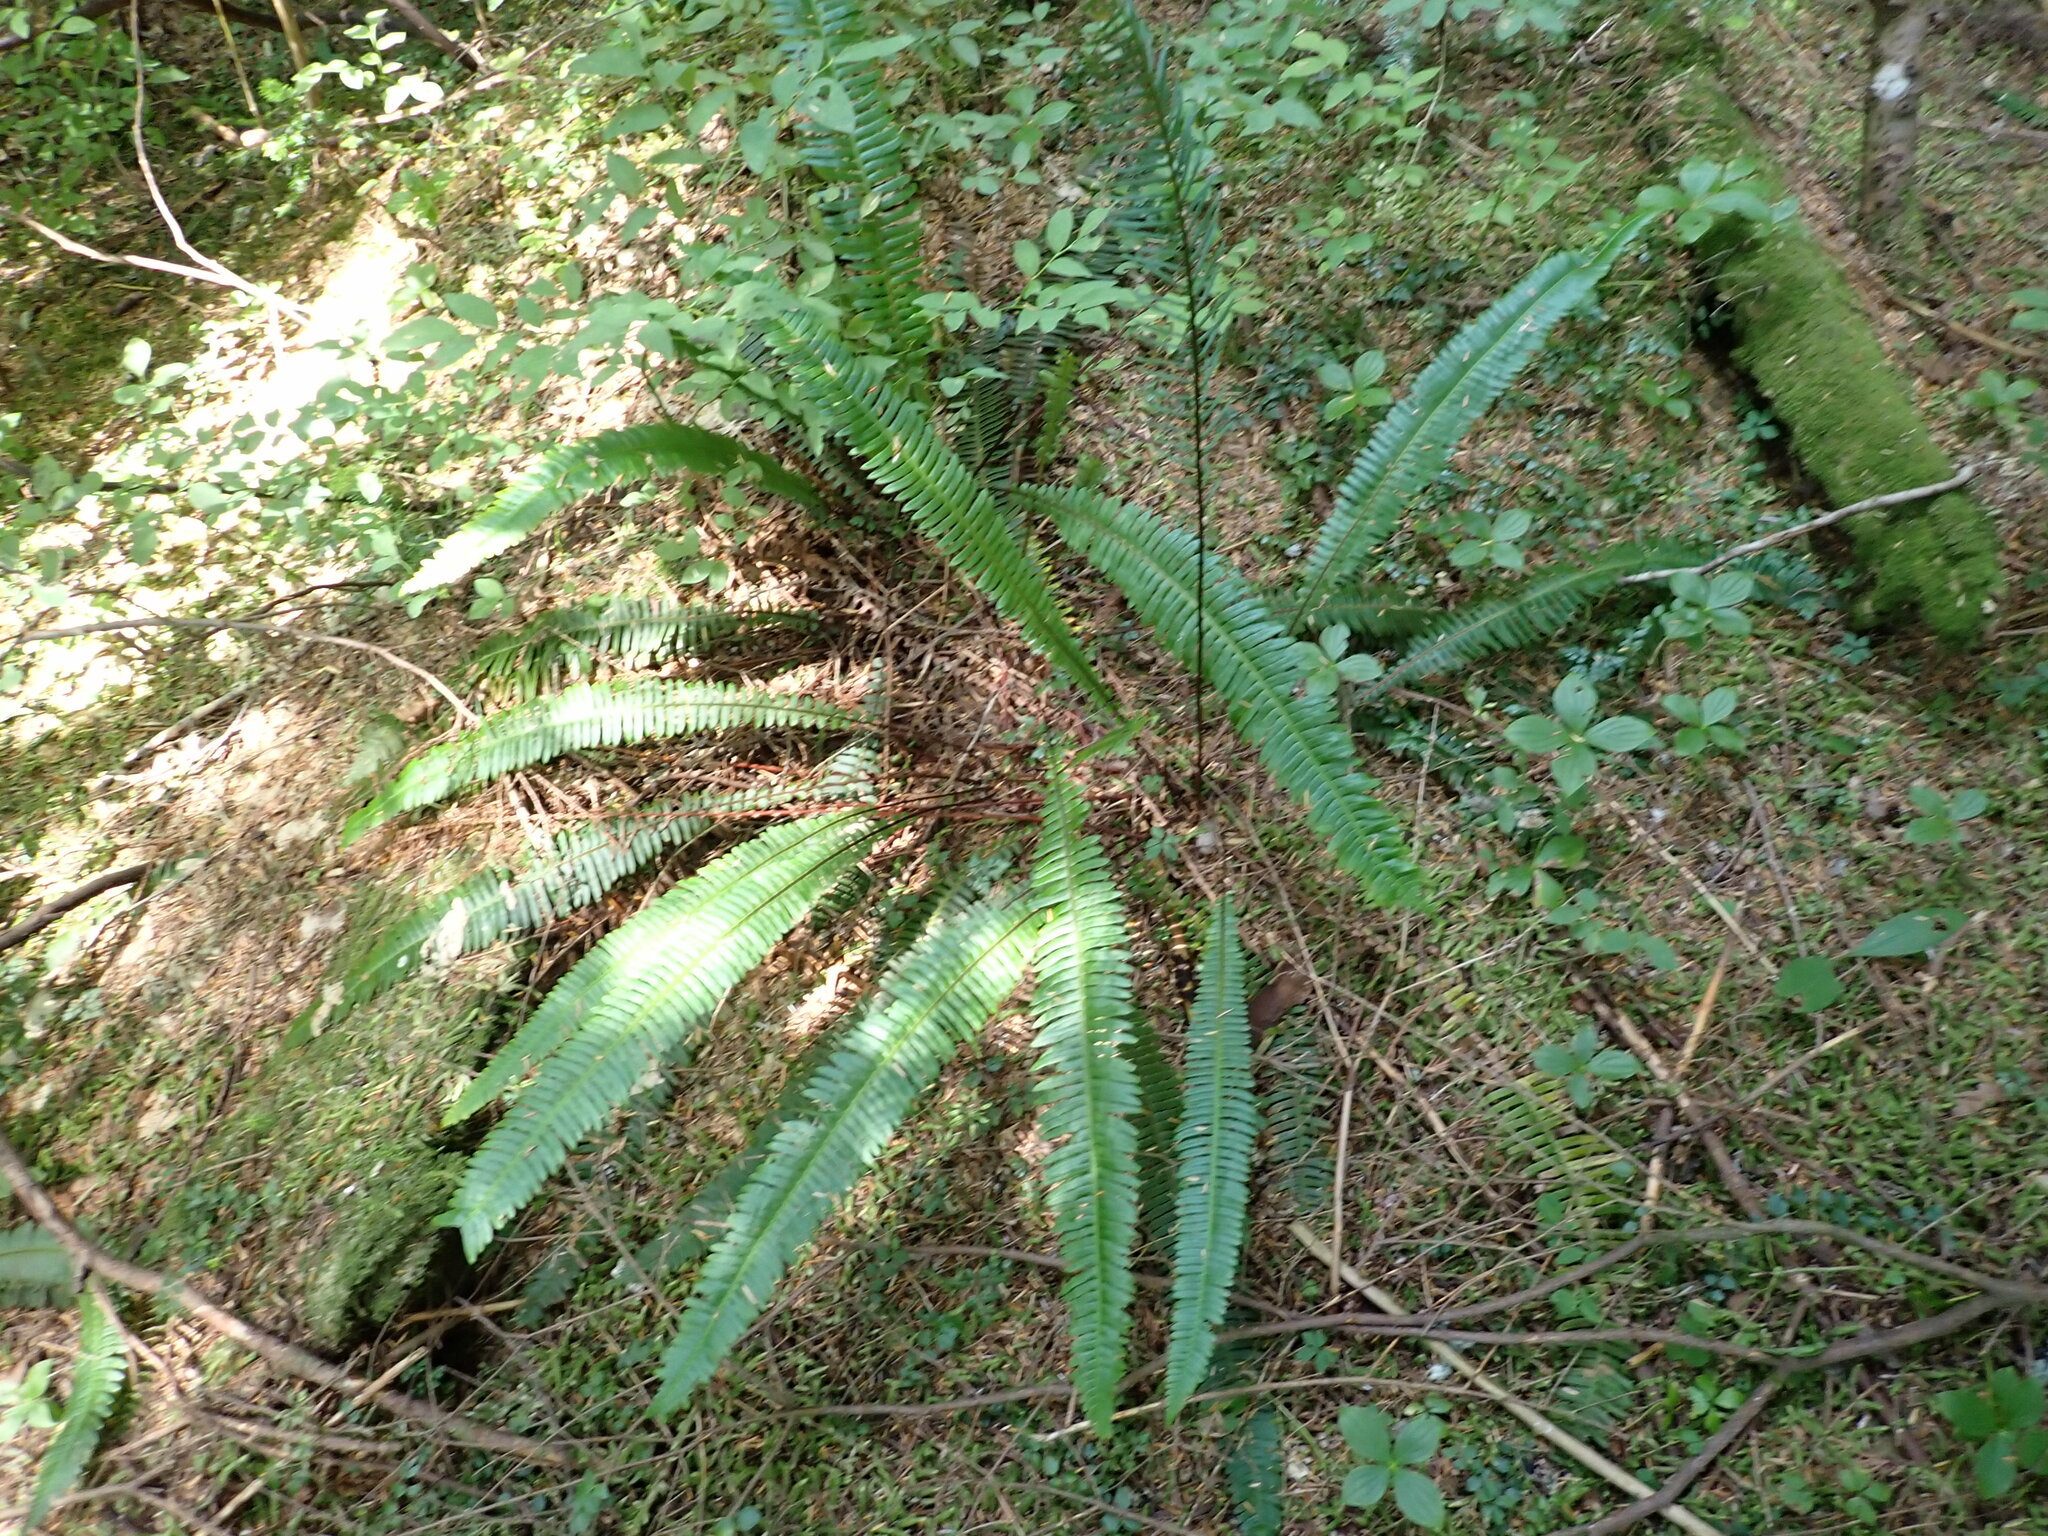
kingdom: Plantae
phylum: Tracheophyta
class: Polypodiopsida
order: Polypodiales
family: Blechnaceae
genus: Struthiopteris
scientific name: Struthiopteris spicant
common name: Deer fern
